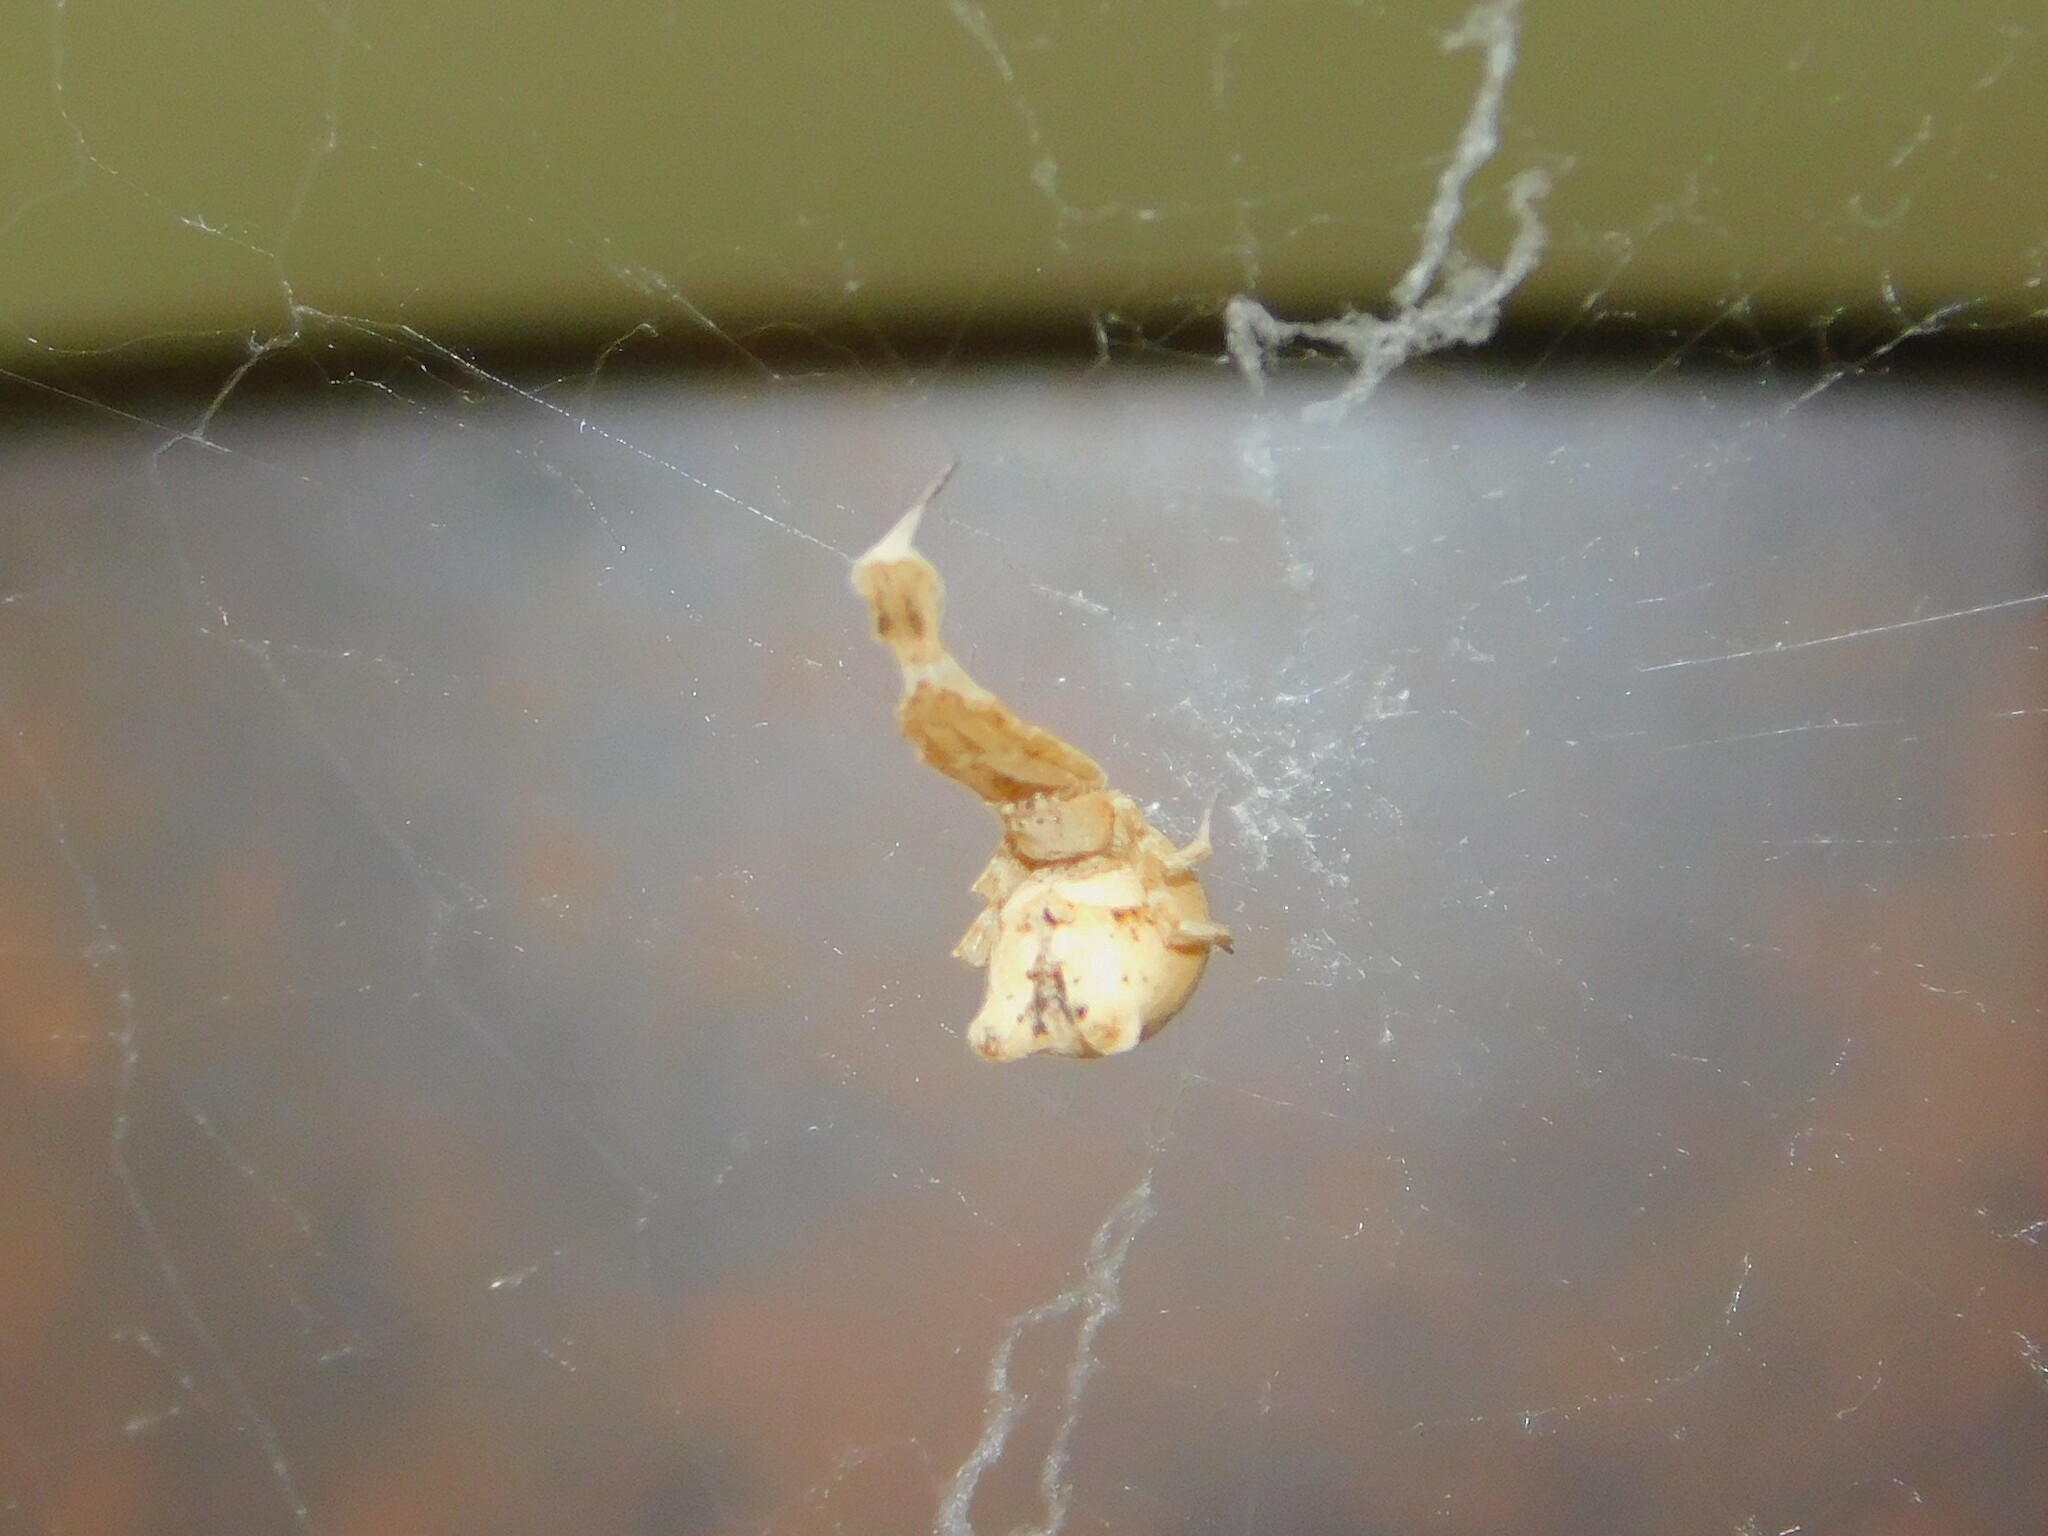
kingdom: Animalia
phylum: Arthropoda
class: Arachnida
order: Araneae
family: Uloboridae
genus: Uloborus
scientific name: Uloborus plumipes
